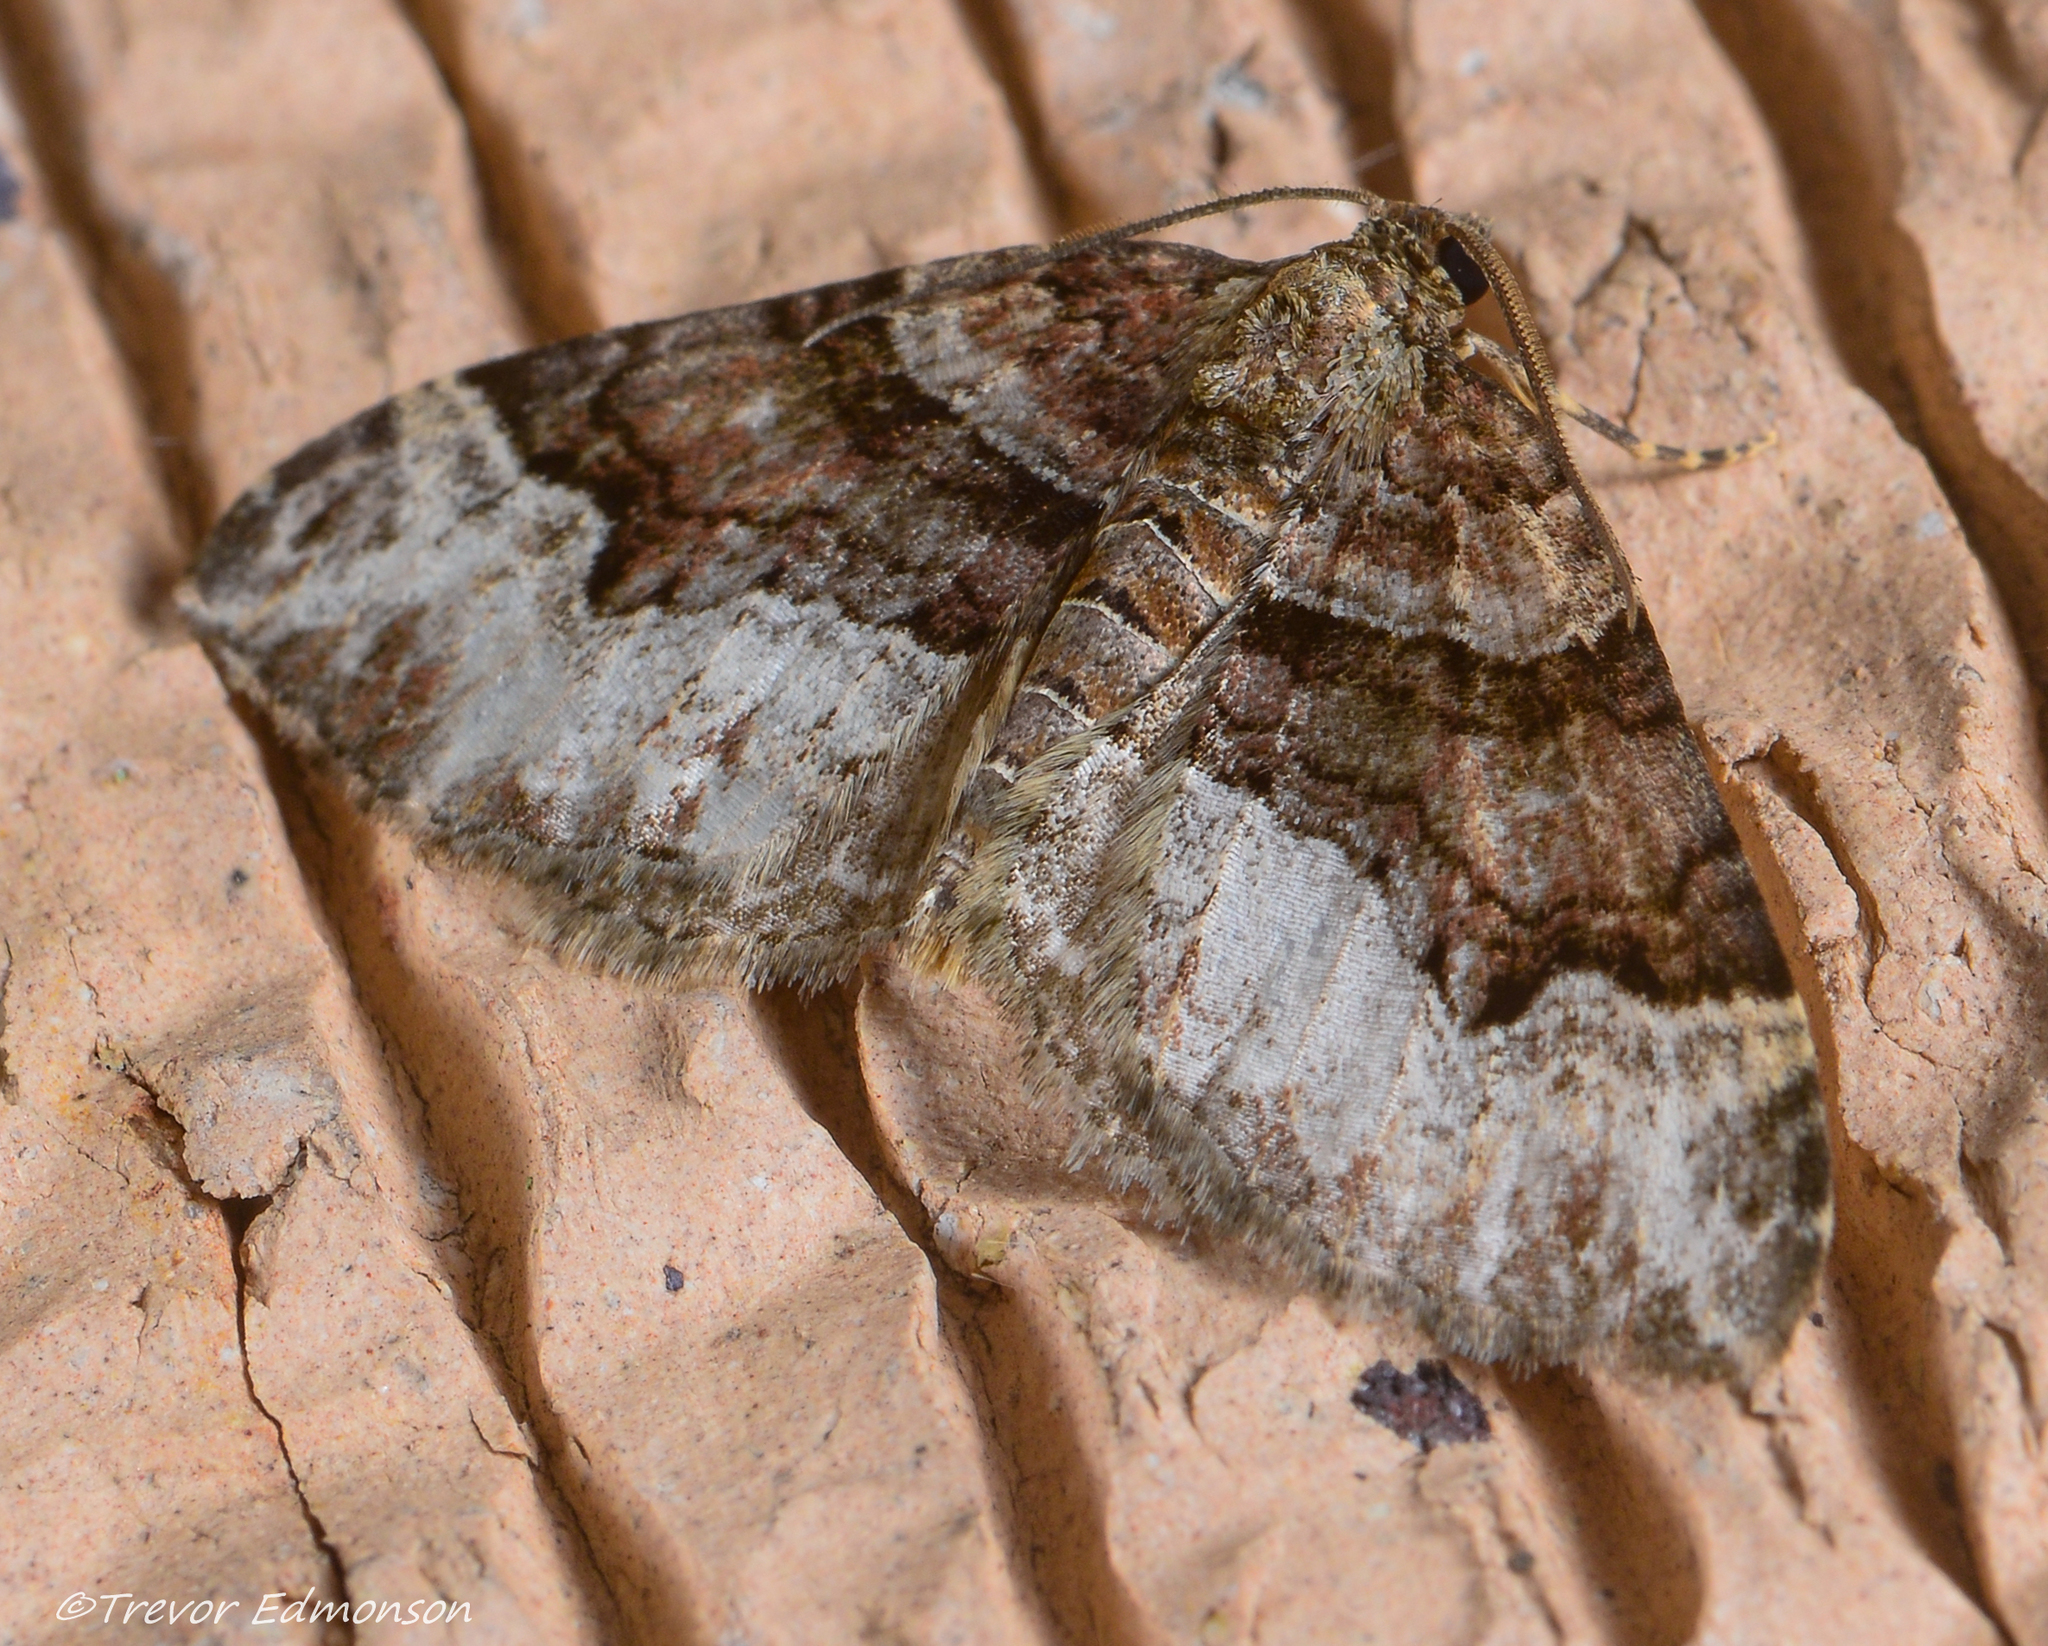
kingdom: Animalia
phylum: Arthropoda
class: Insecta
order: Lepidoptera
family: Geometridae
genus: Xanthorhoe
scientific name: Xanthorhoe lacustrata
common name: Toothed brown carpet
